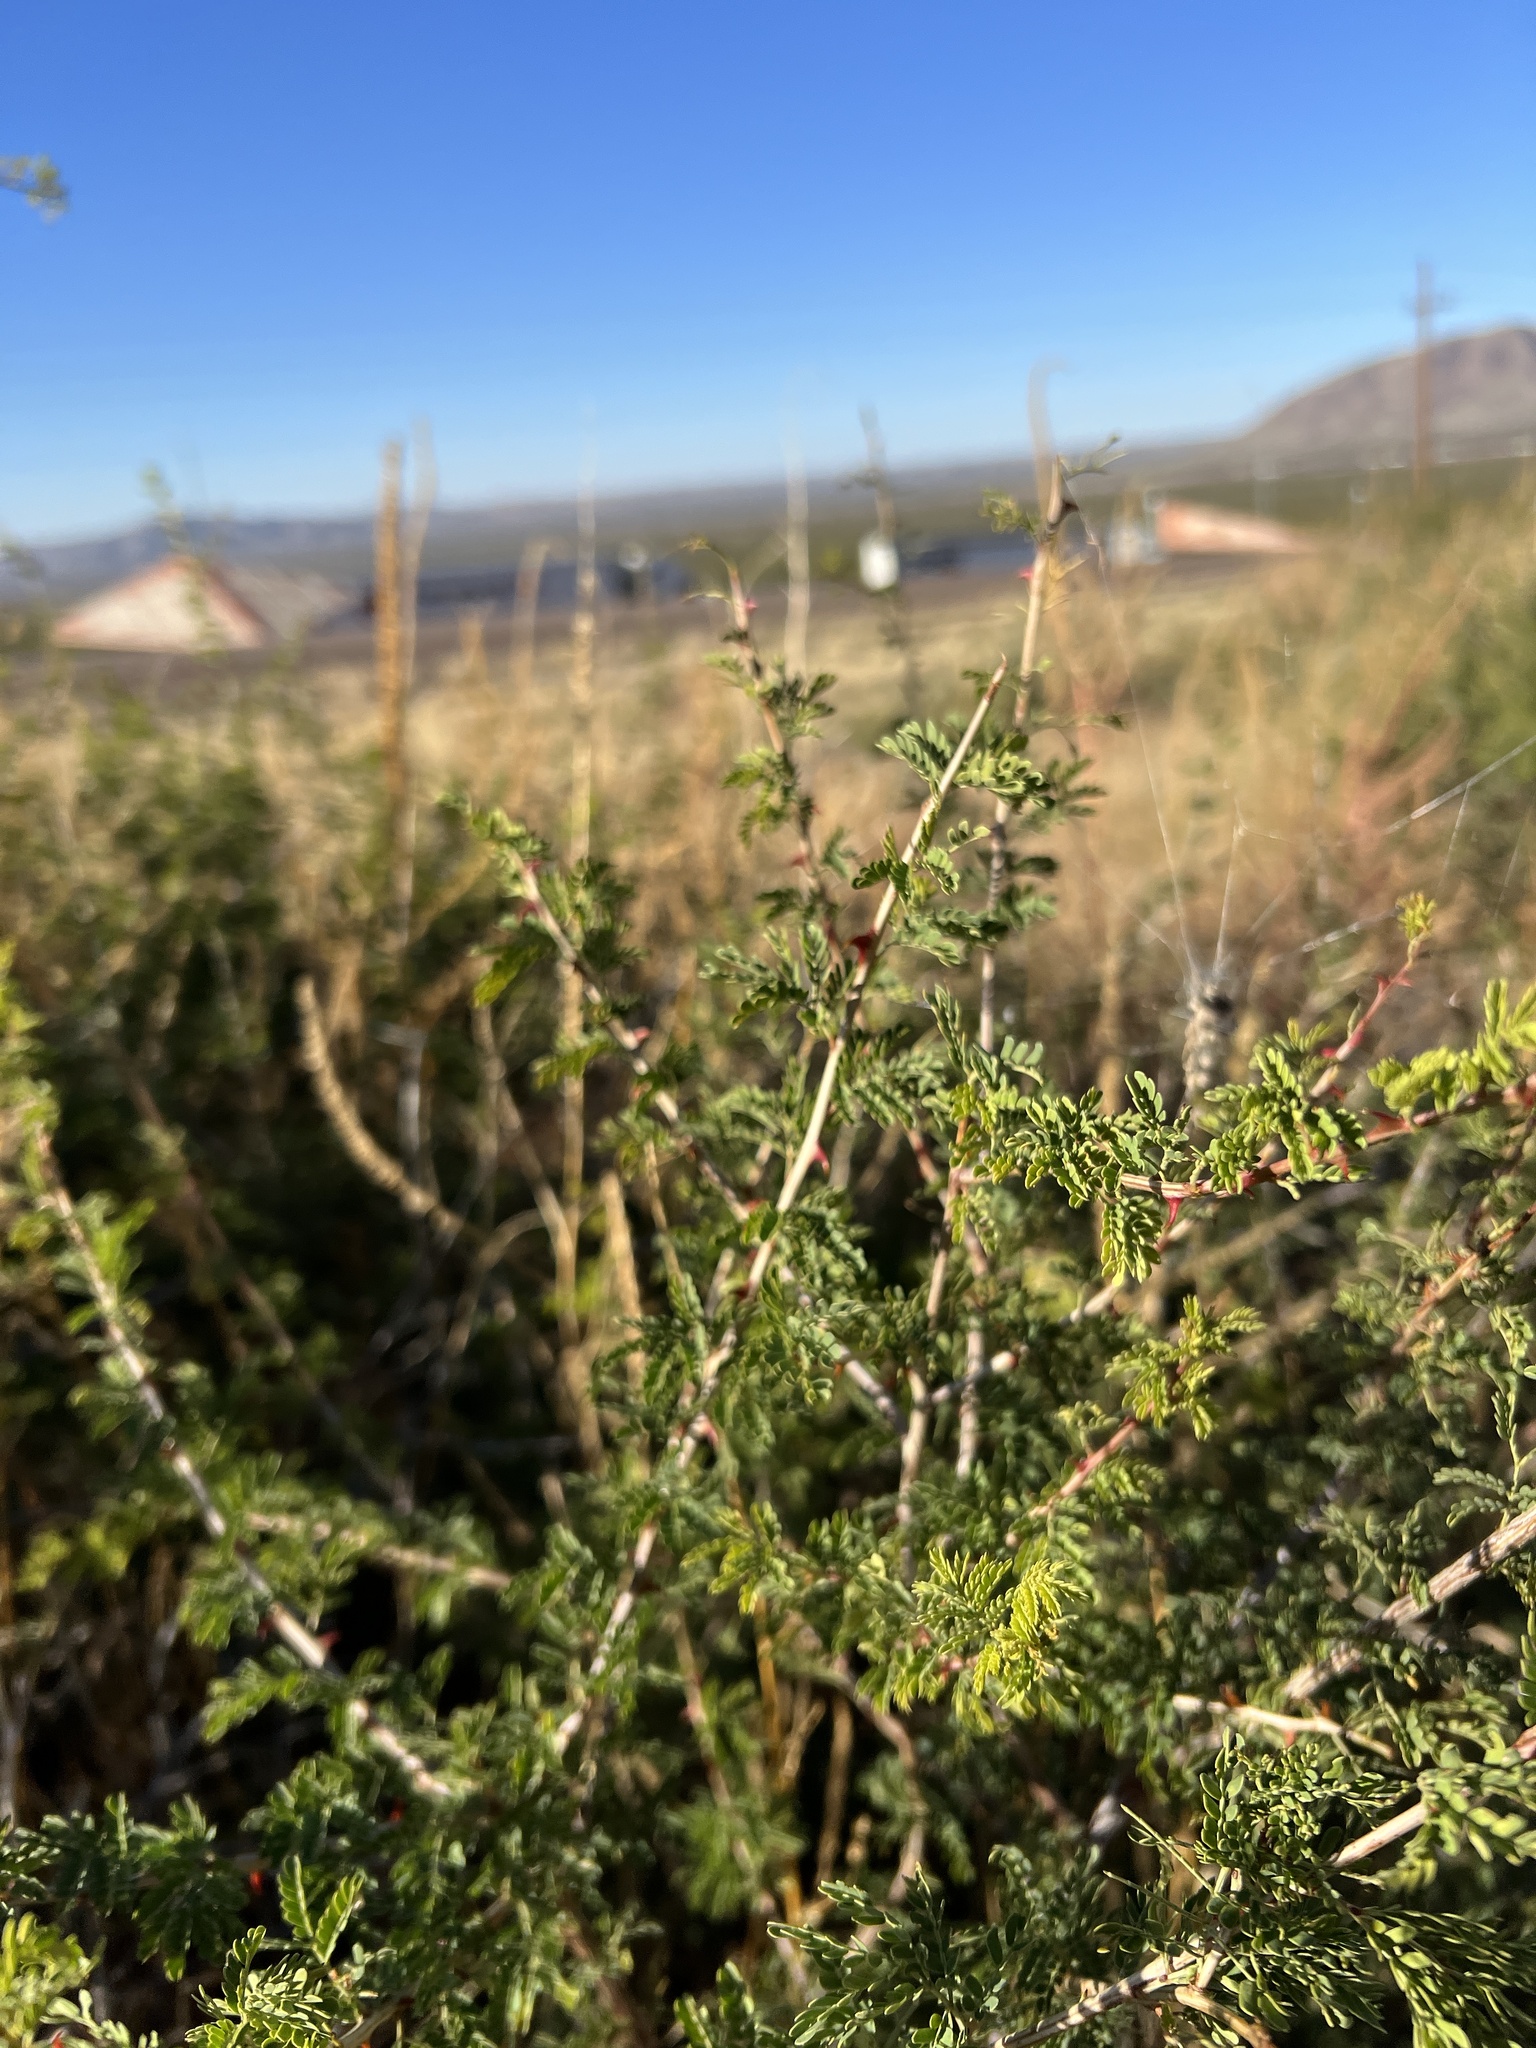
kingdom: Plantae
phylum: Tracheophyta
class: Magnoliopsida
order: Fabales
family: Fabaceae
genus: Senegalia
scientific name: Senegalia greggii
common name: Texas-mimosa
